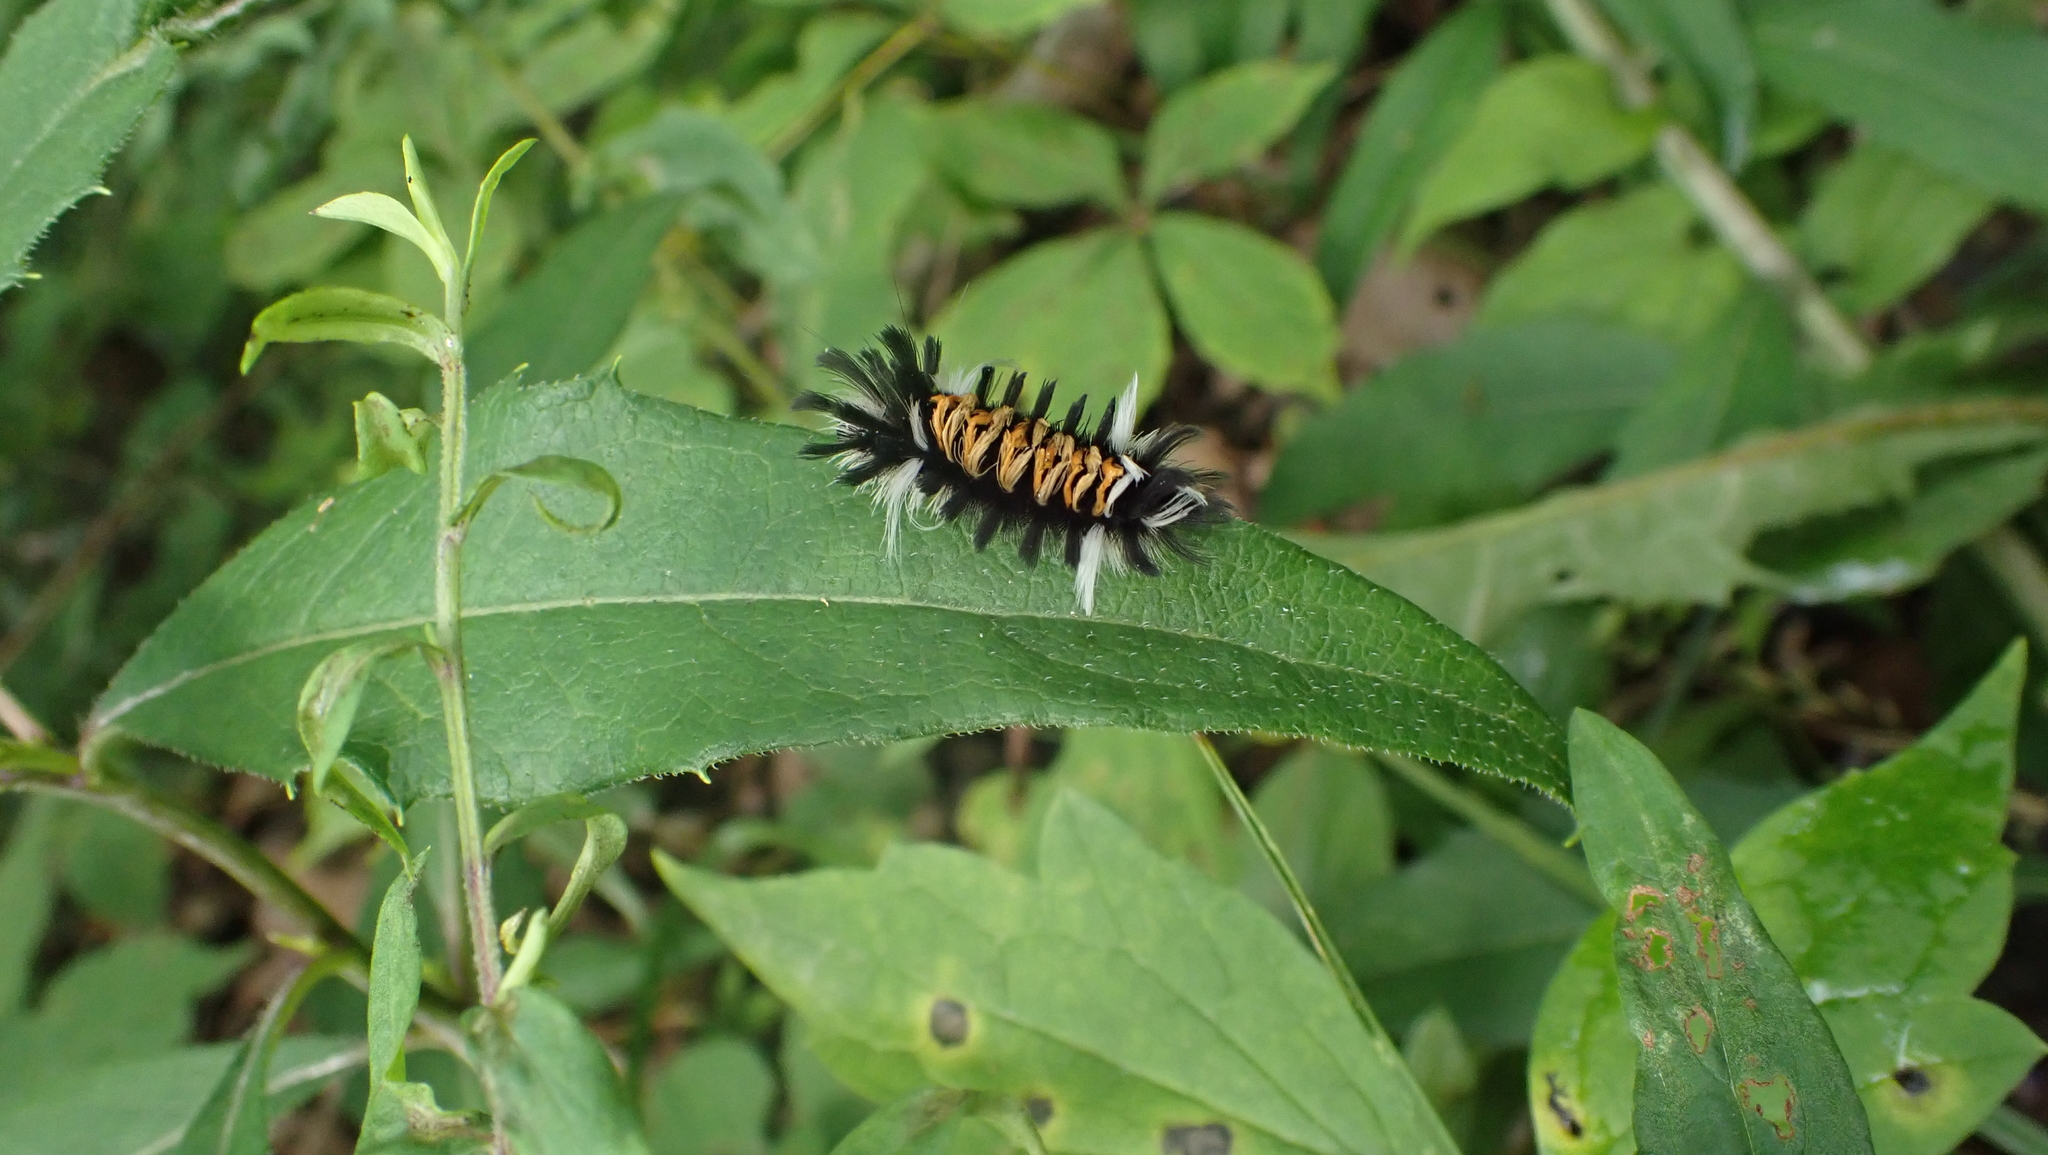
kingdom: Animalia
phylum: Arthropoda
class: Insecta
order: Lepidoptera
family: Erebidae
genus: Euchaetes
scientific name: Euchaetes egle
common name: Milkweed tussock moth
